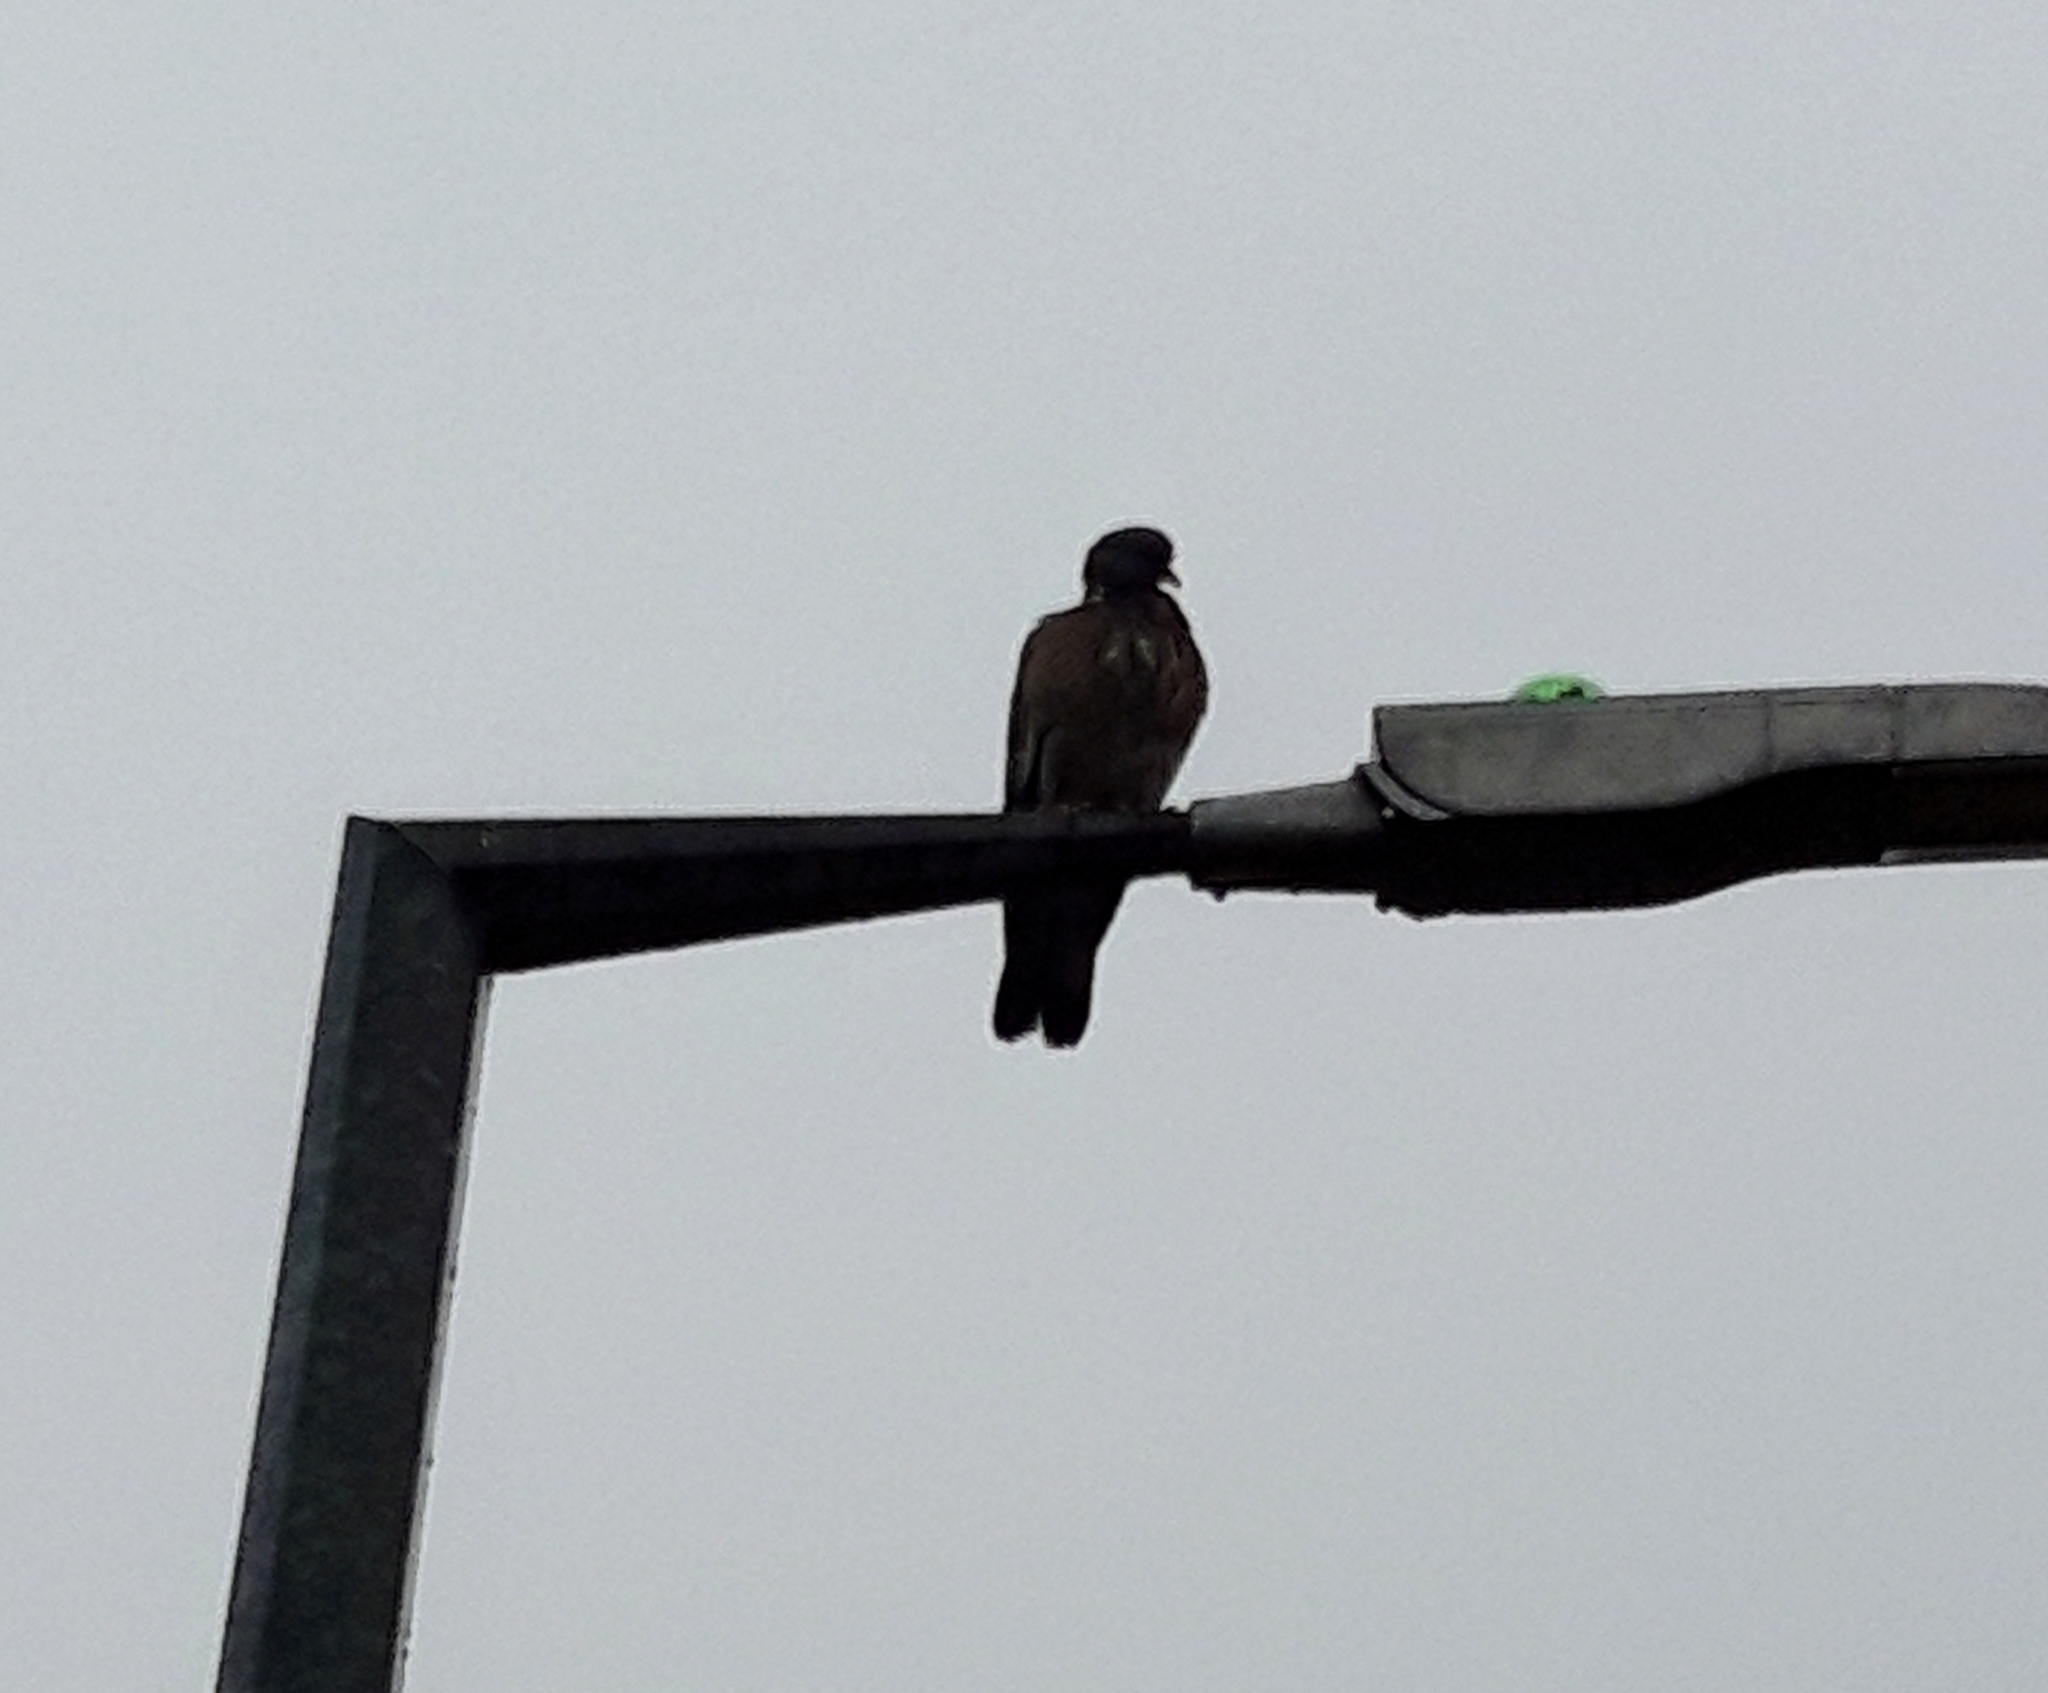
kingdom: Animalia
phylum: Chordata
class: Aves
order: Columbiformes
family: Columbidae
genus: Columba
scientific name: Columba palumbus
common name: Common wood pigeon
